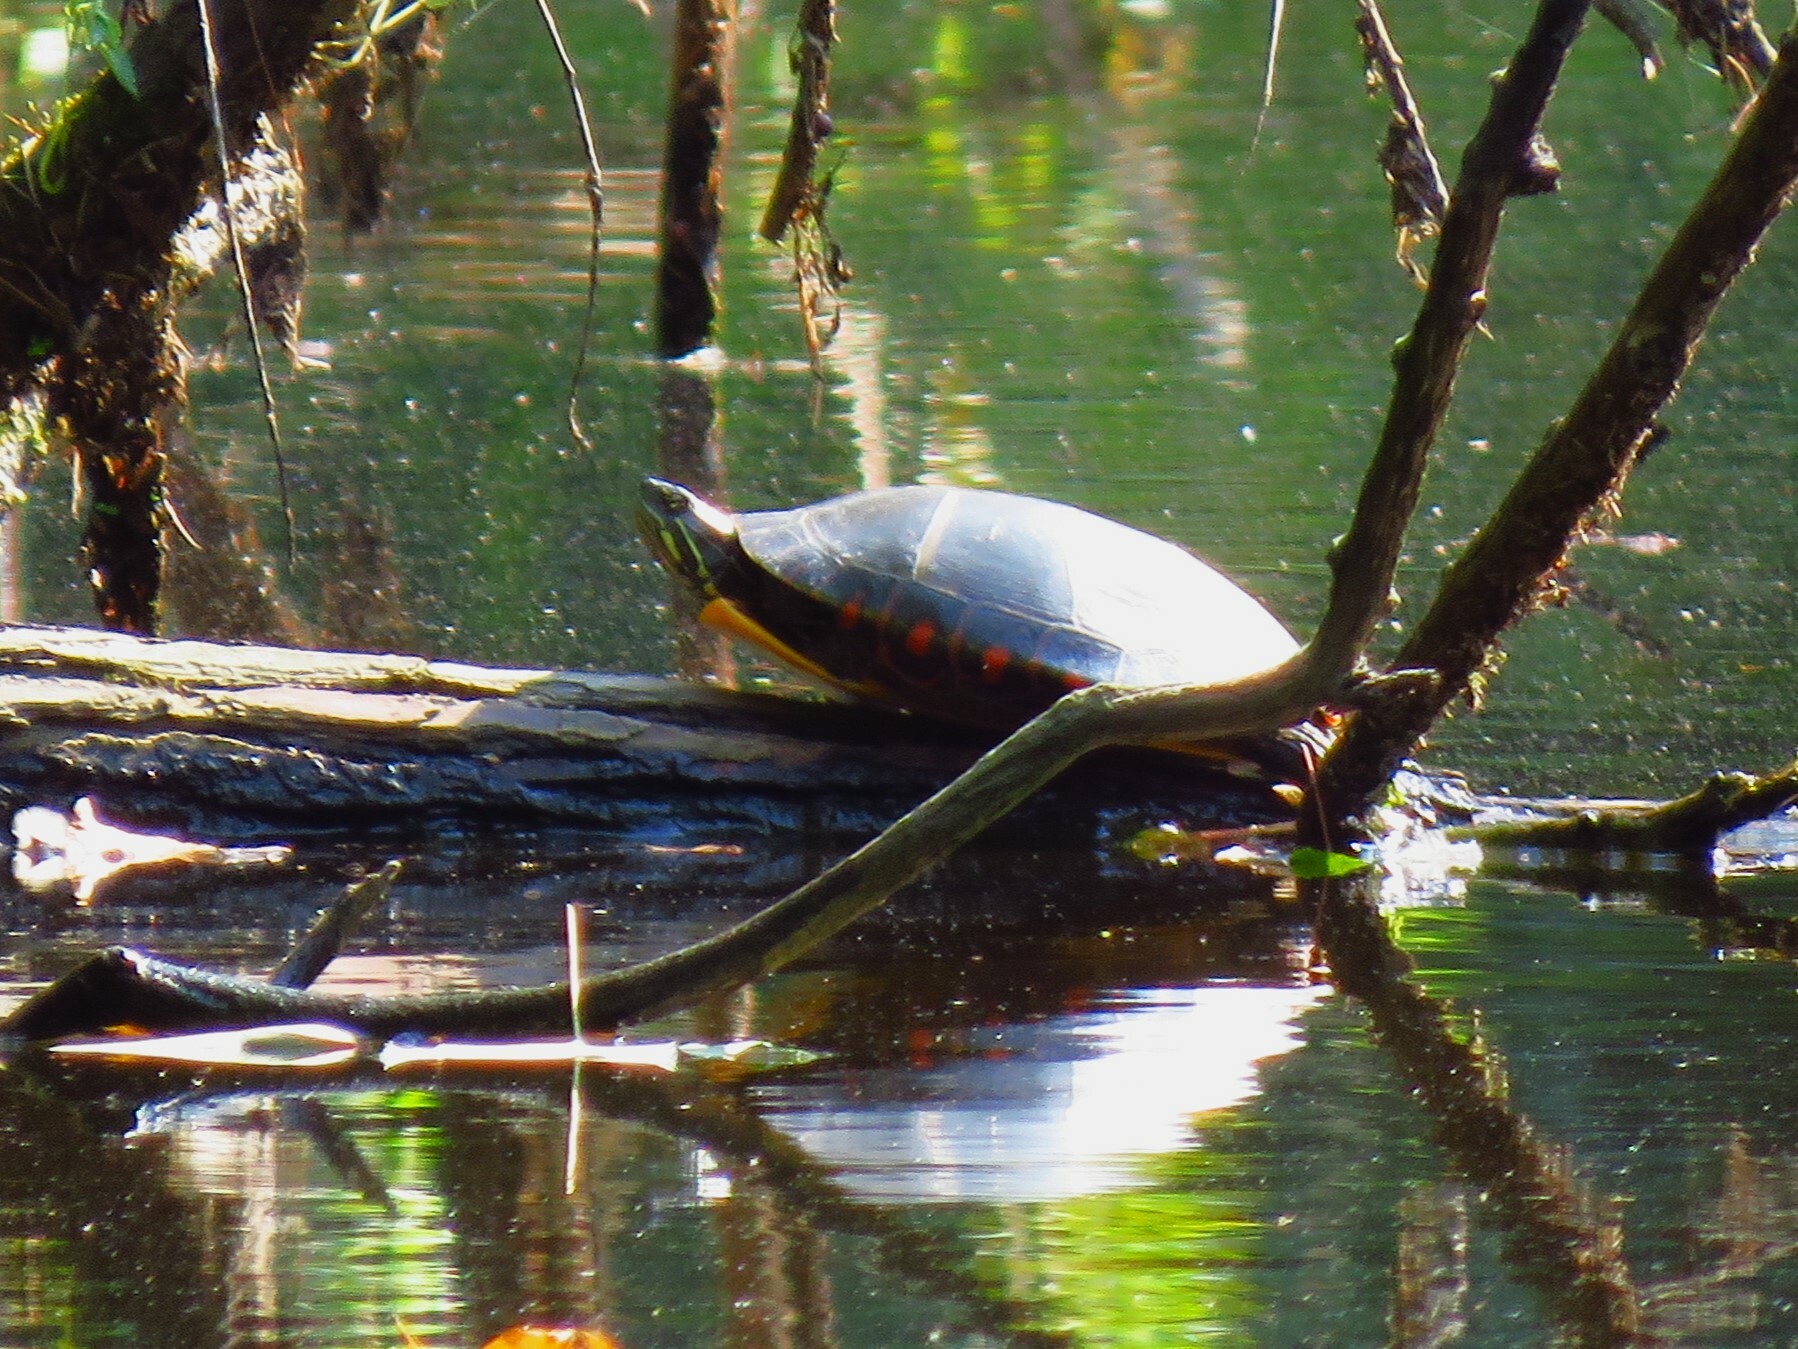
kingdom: Animalia
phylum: Chordata
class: Testudines
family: Emydidae
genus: Chrysemys
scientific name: Chrysemys picta
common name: Painted turtle
